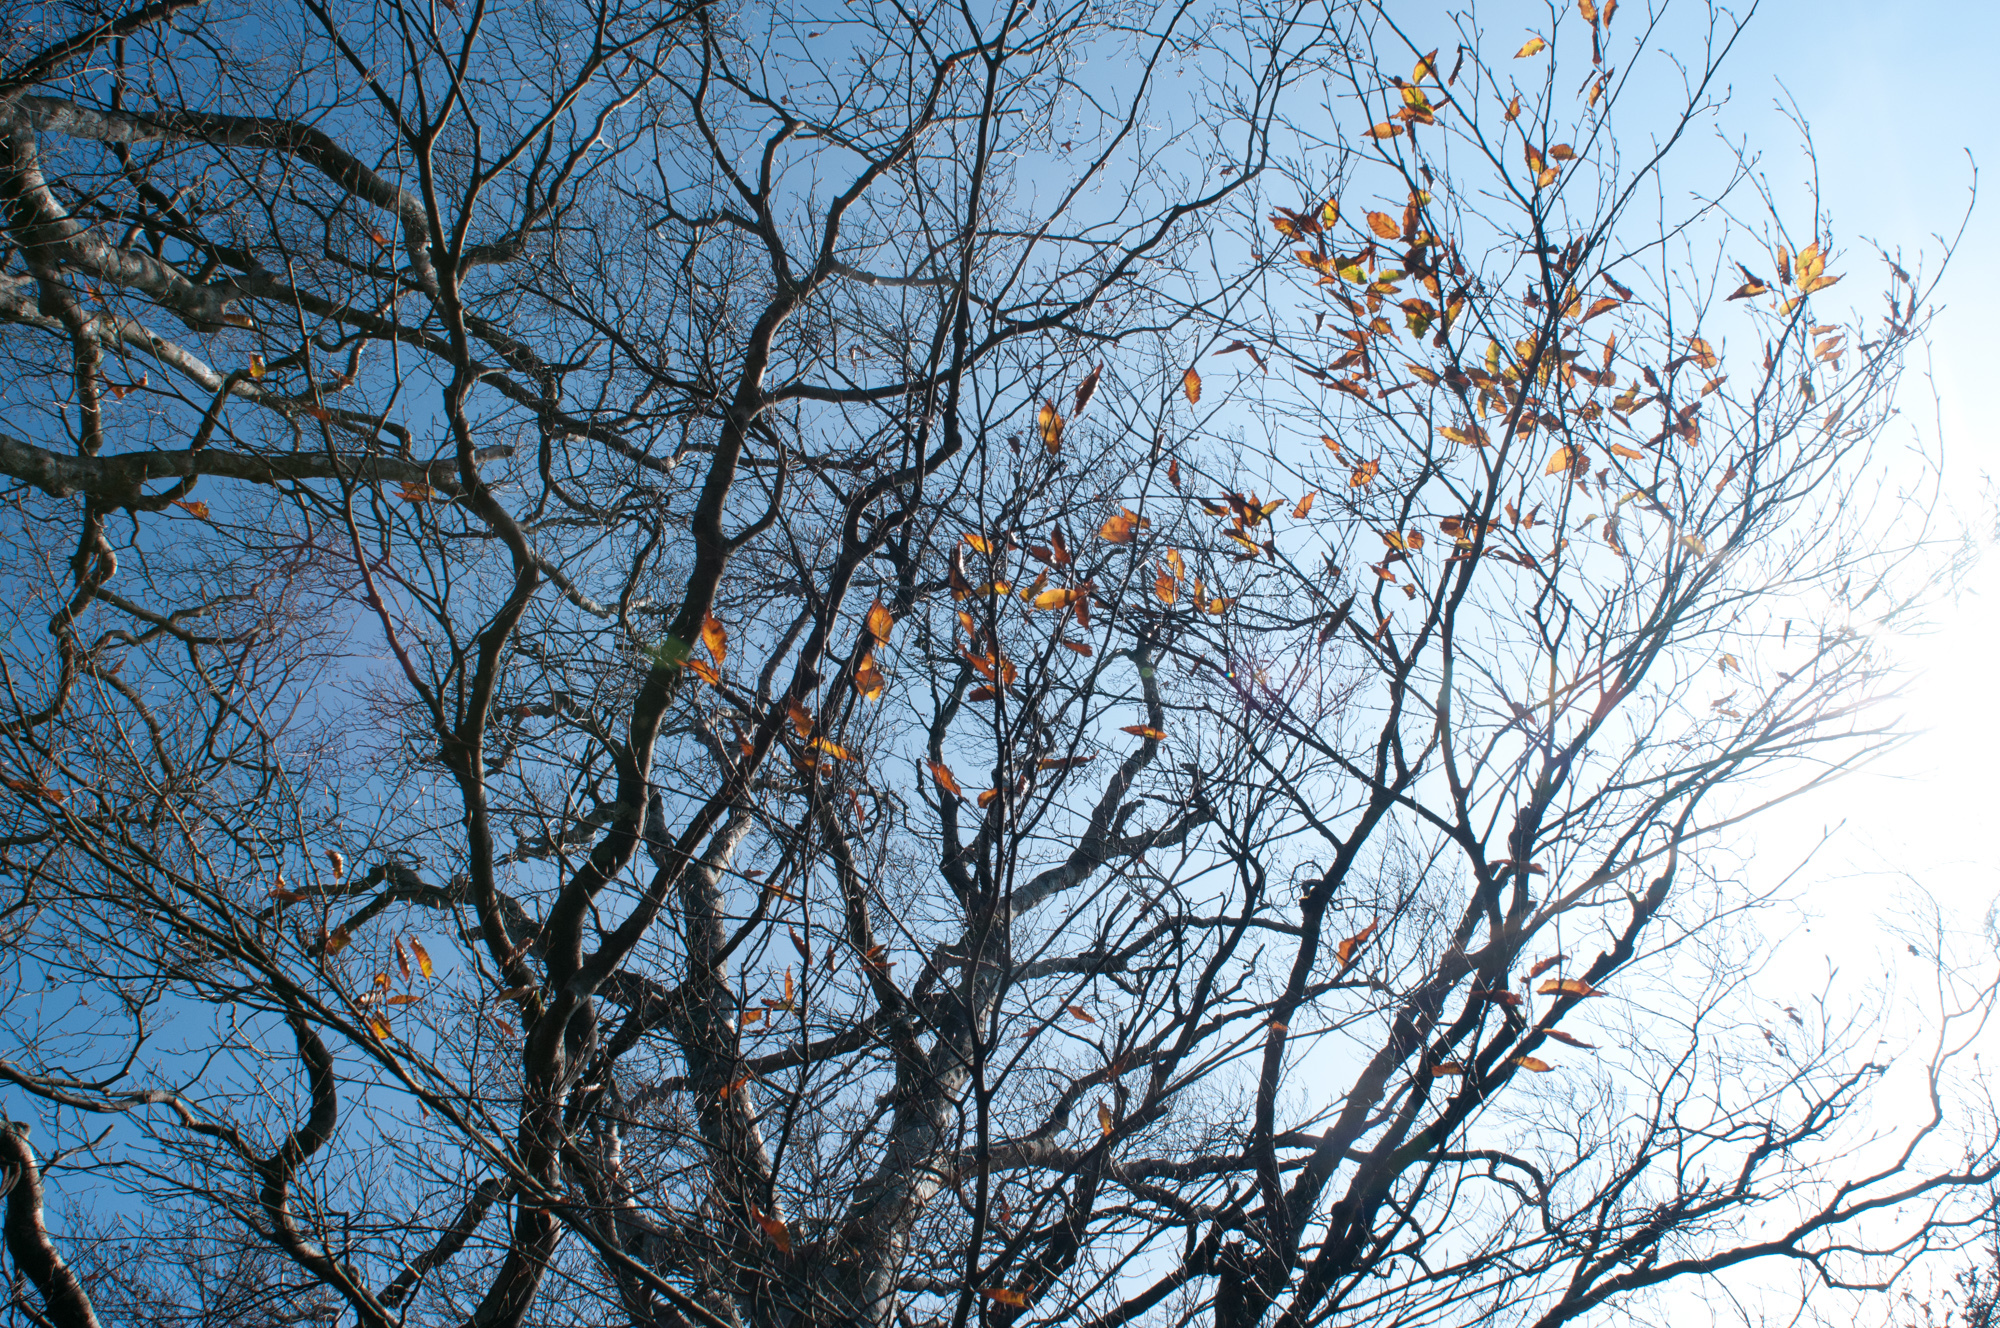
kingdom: Plantae
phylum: Tracheophyta
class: Magnoliopsida
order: Fagales
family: Fagaceae
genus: Fagus
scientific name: Fagus hayatae
